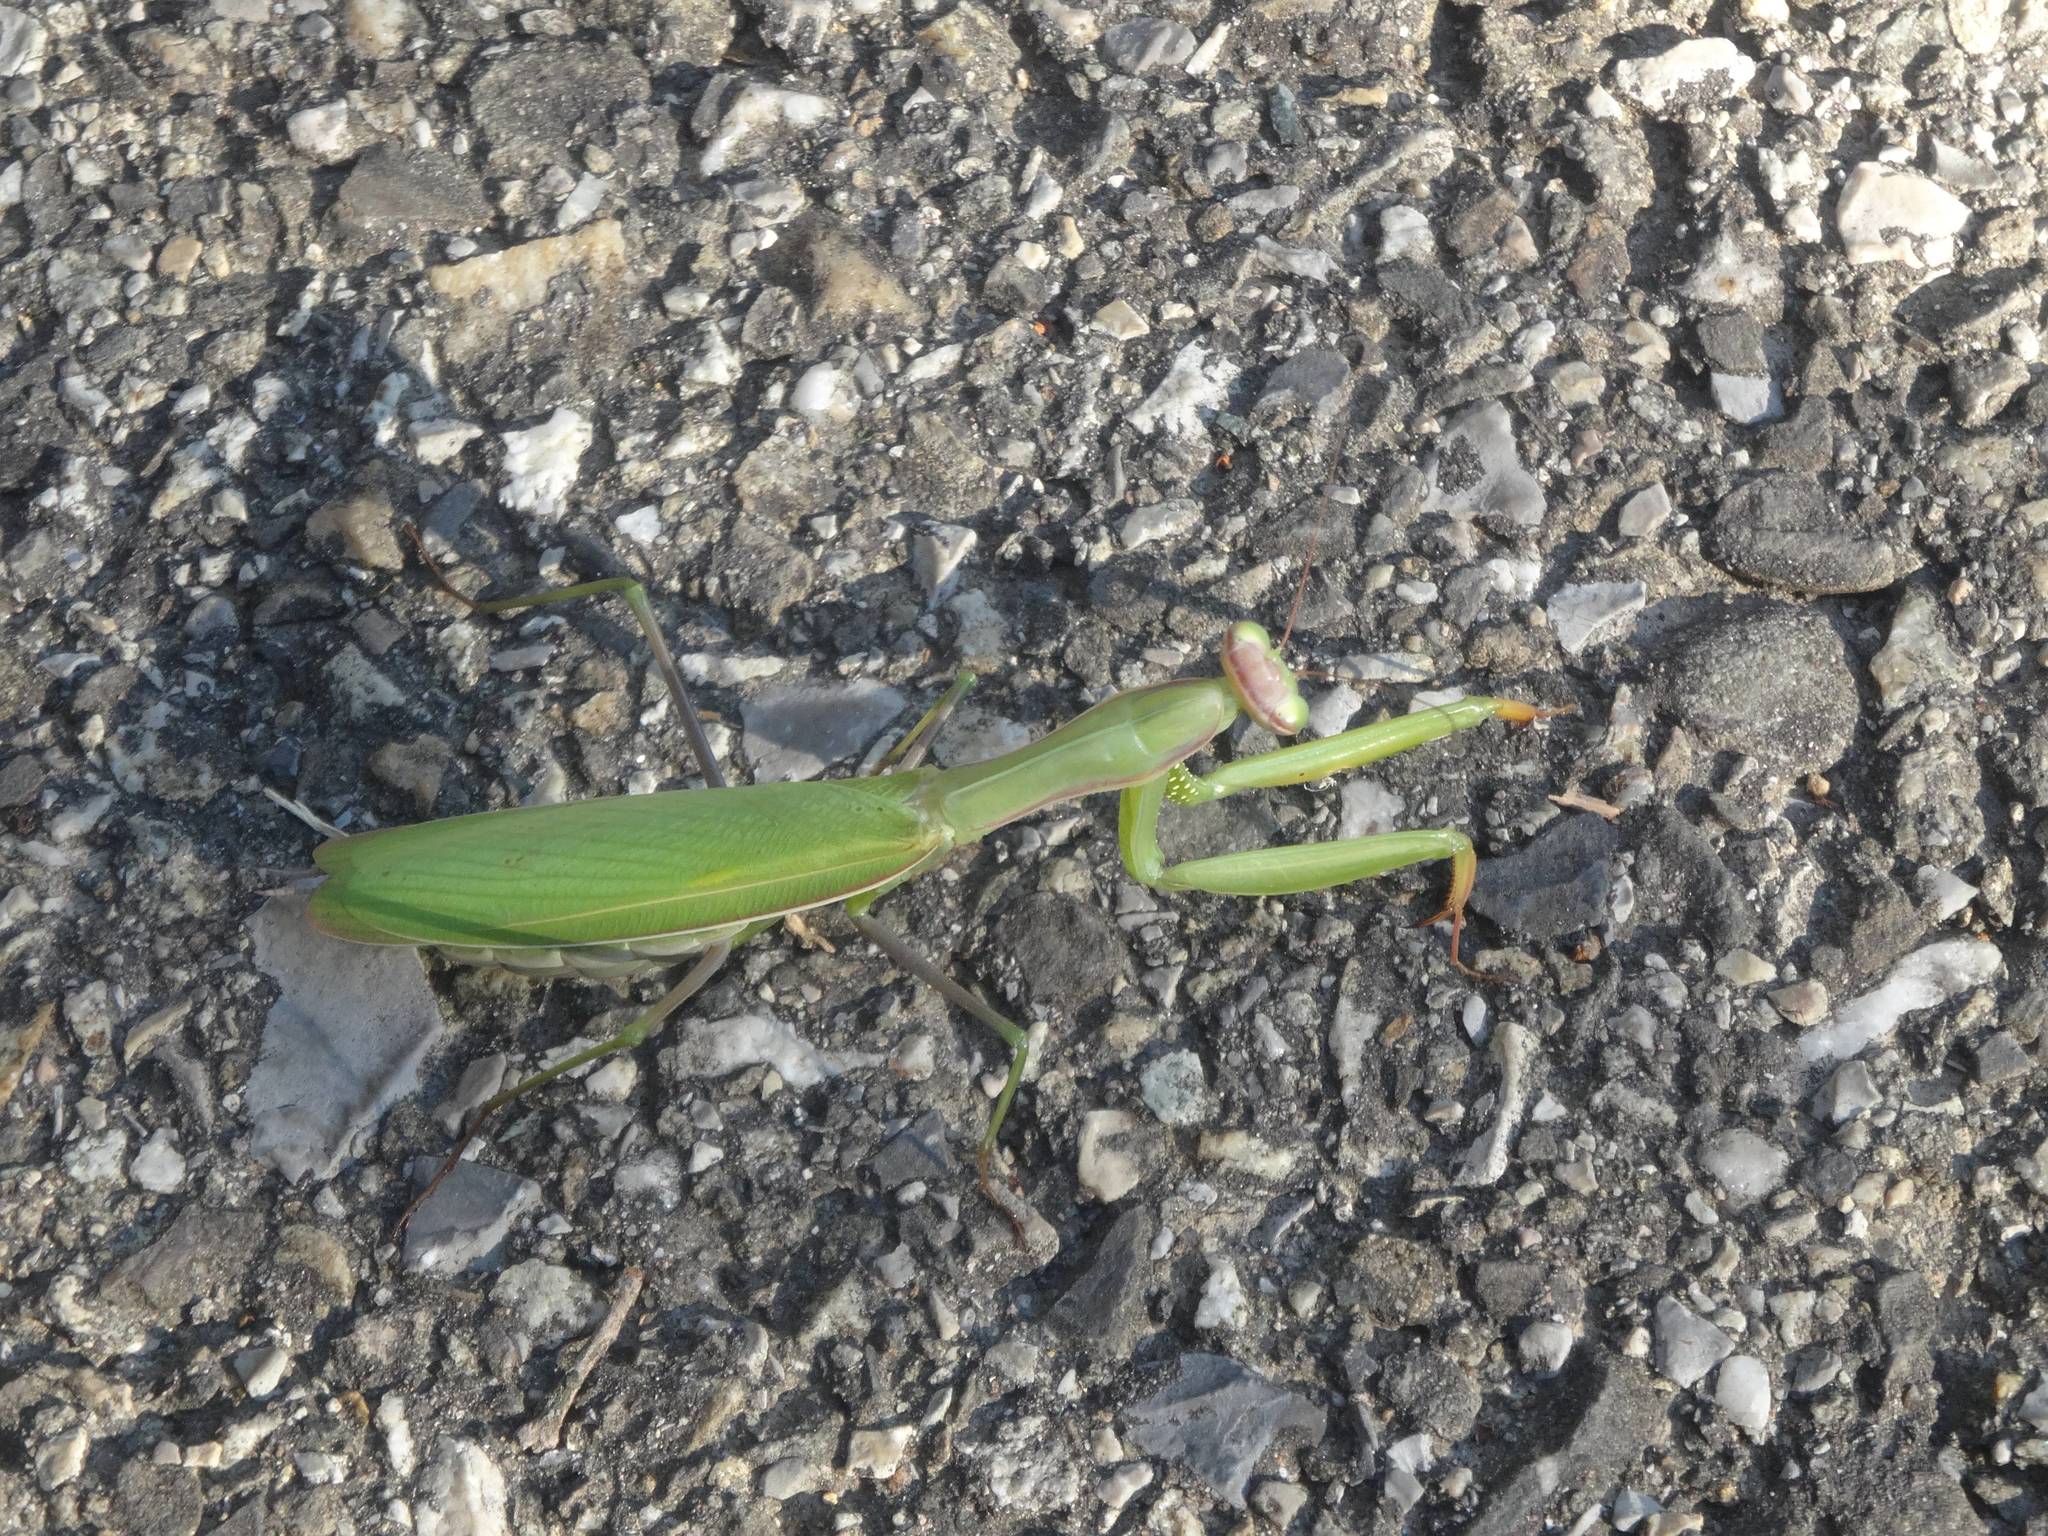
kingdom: Animalia
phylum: Arthropoda
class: Insecta
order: Mantodea
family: Mantidae
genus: Mantis
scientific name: Mantis religiosa
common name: Praying mantis
